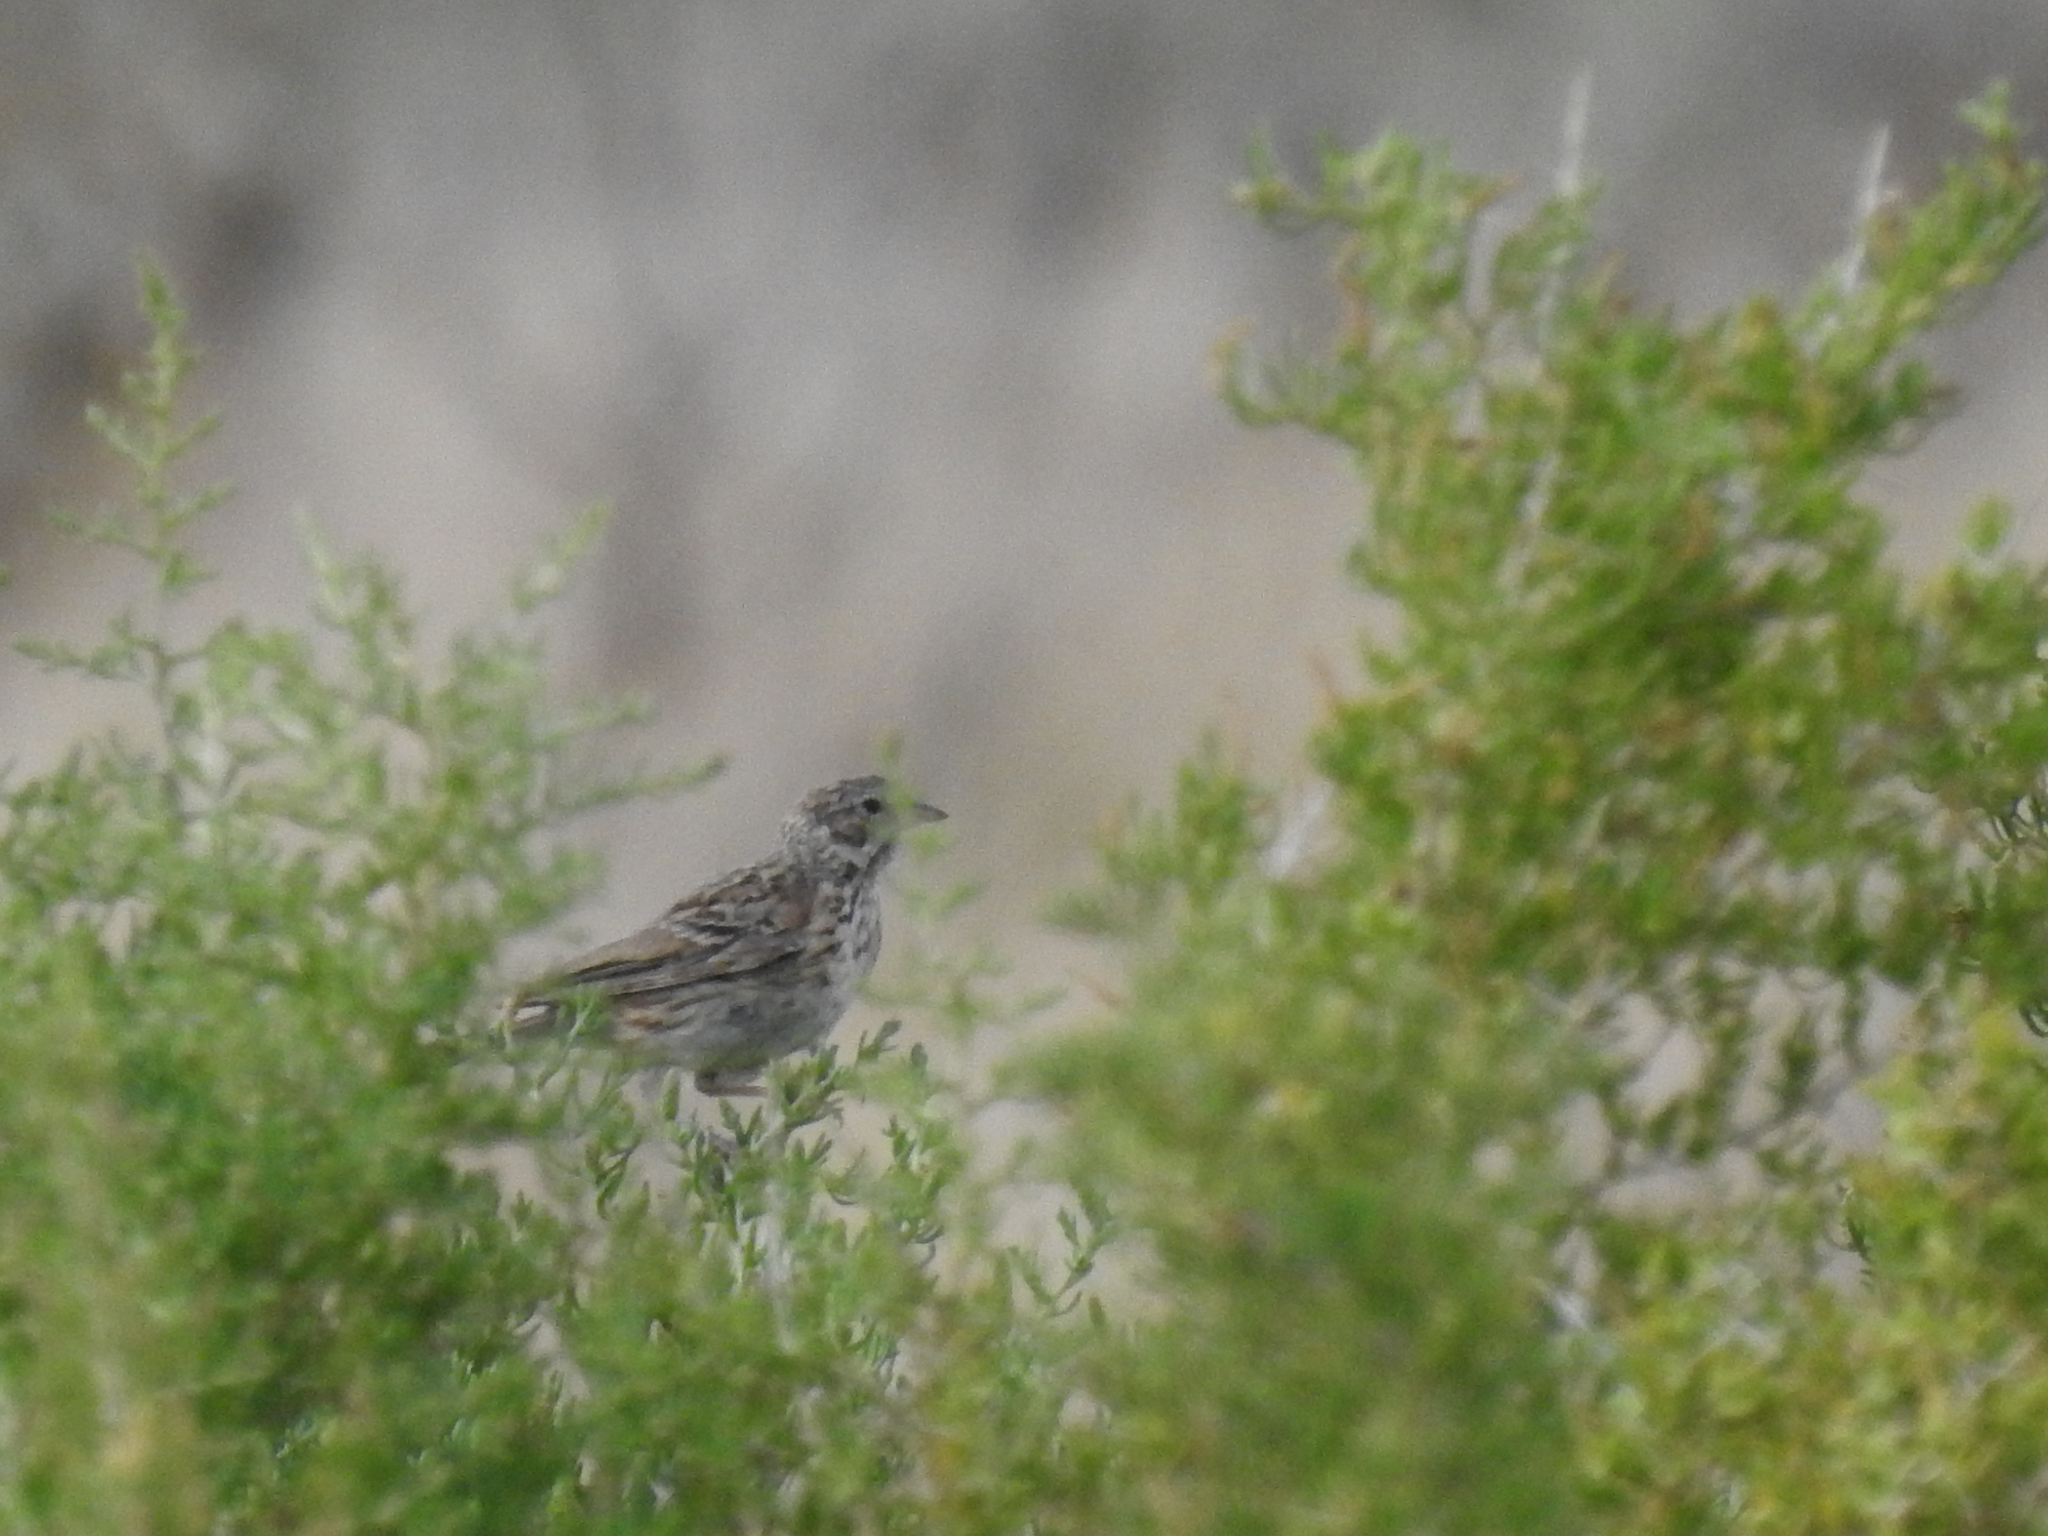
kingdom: Animalia
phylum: Chordata
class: Aves
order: Passeriformes
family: Passerellidae
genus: Pooecetes
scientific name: Pooecetes gramineus
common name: Vesper sparrow
